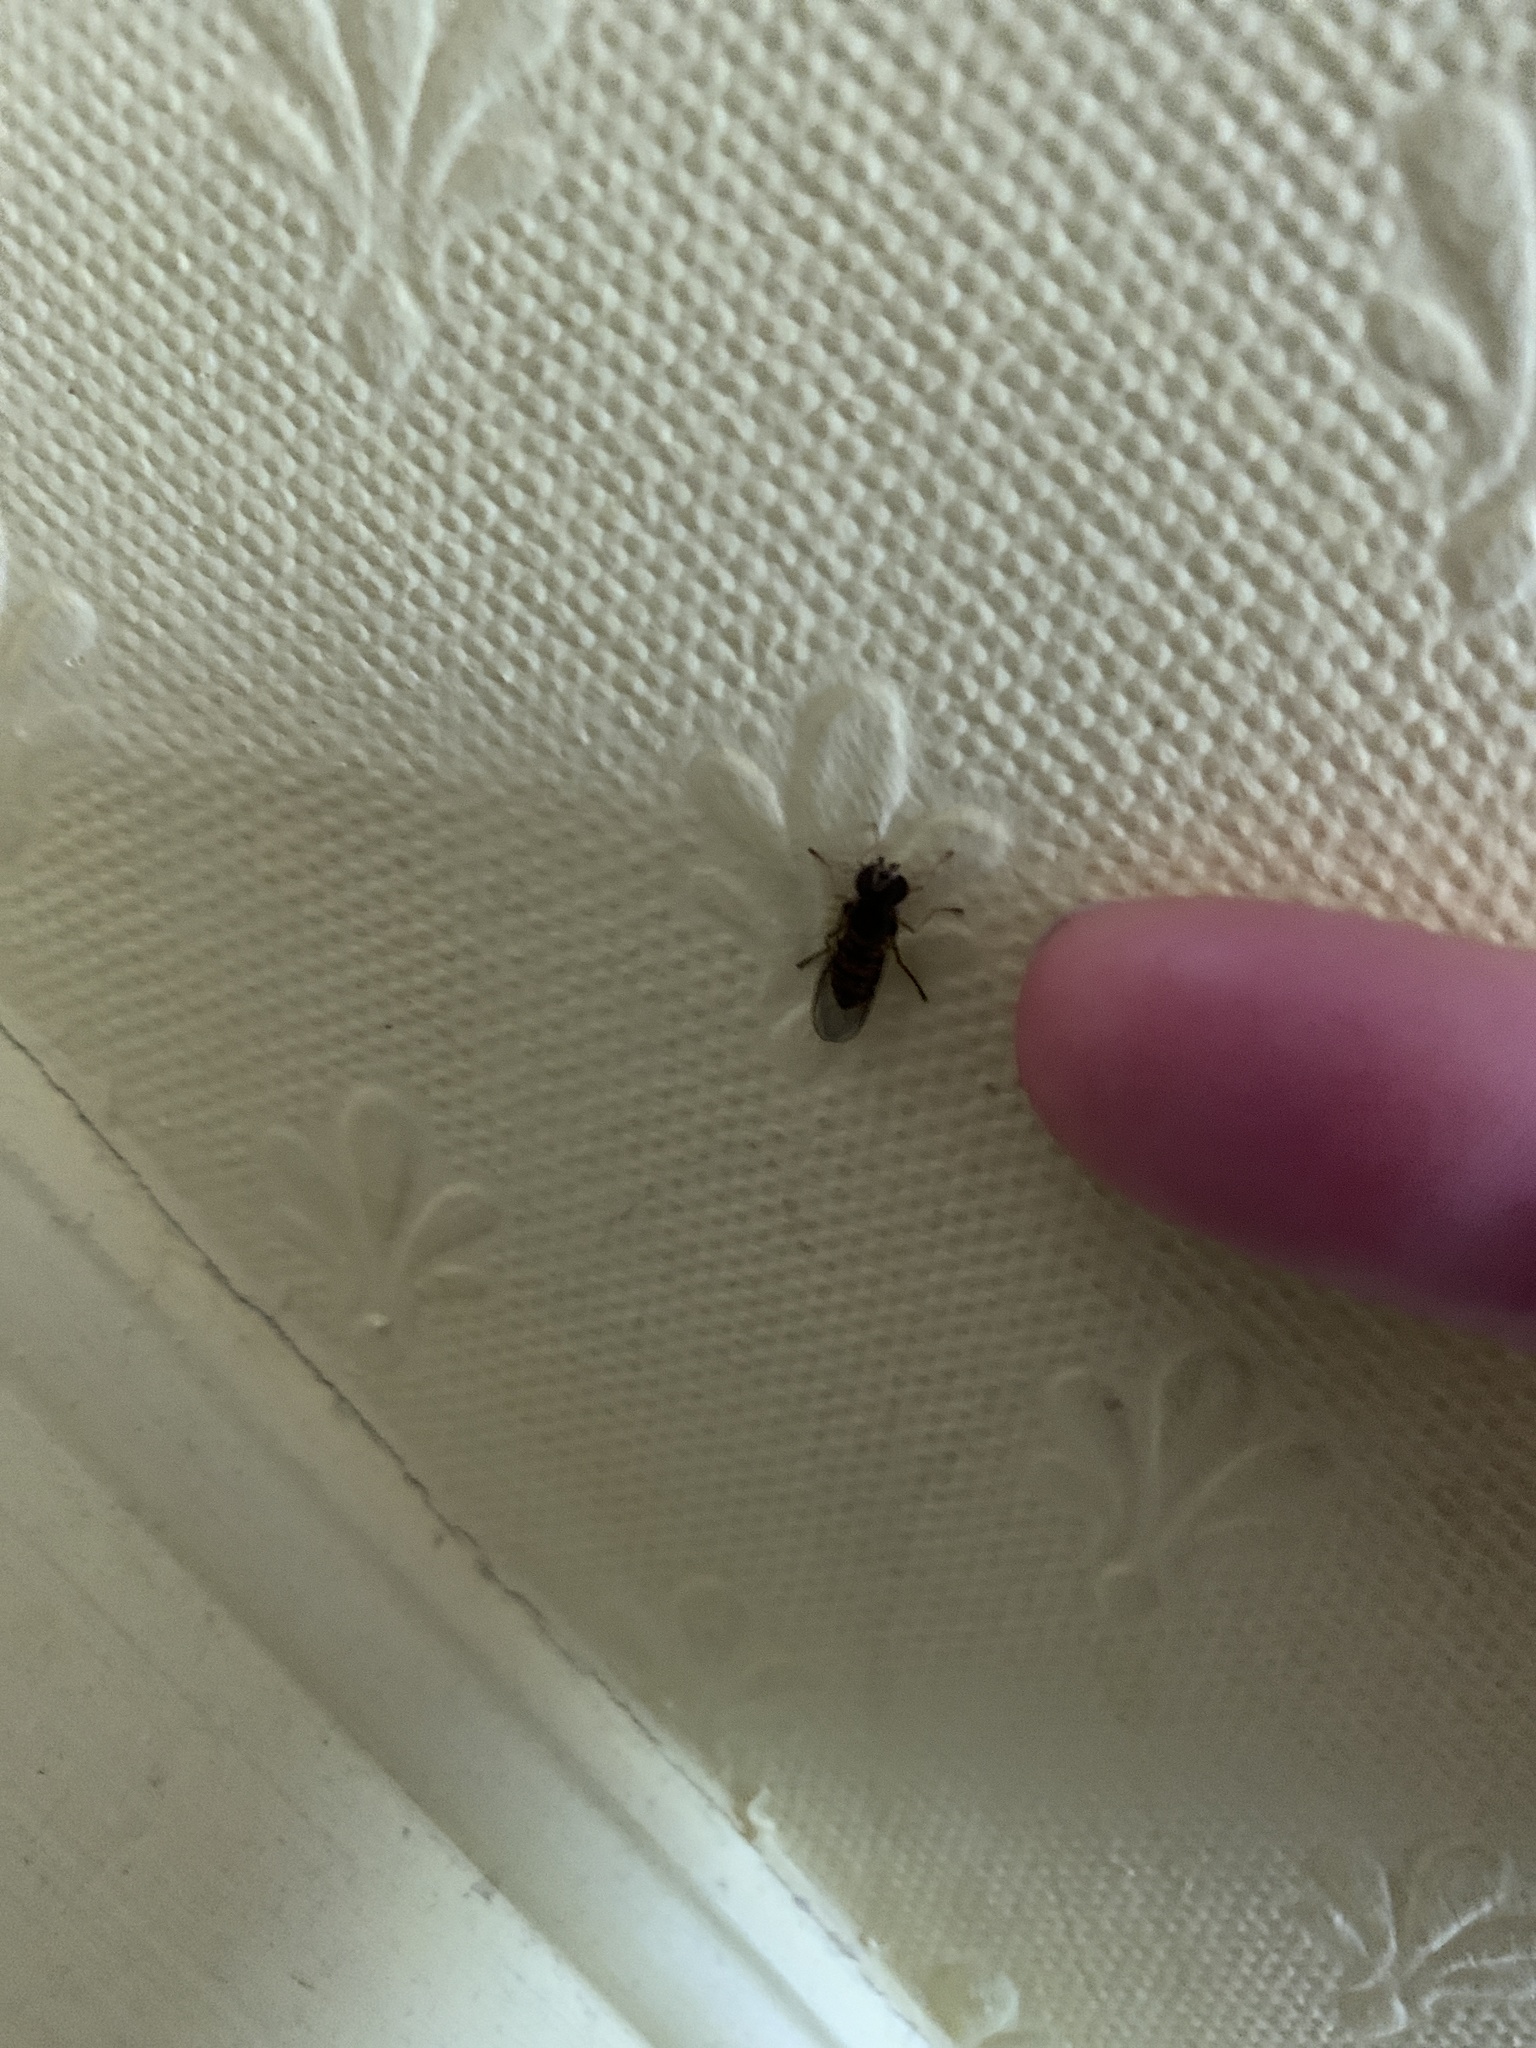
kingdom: Animalia
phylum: Arthropoda
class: Insecta
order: Diptera
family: Syrphidae
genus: Episyrphus
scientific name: Episyrphus balteatus
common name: Marmalade hoverfly
